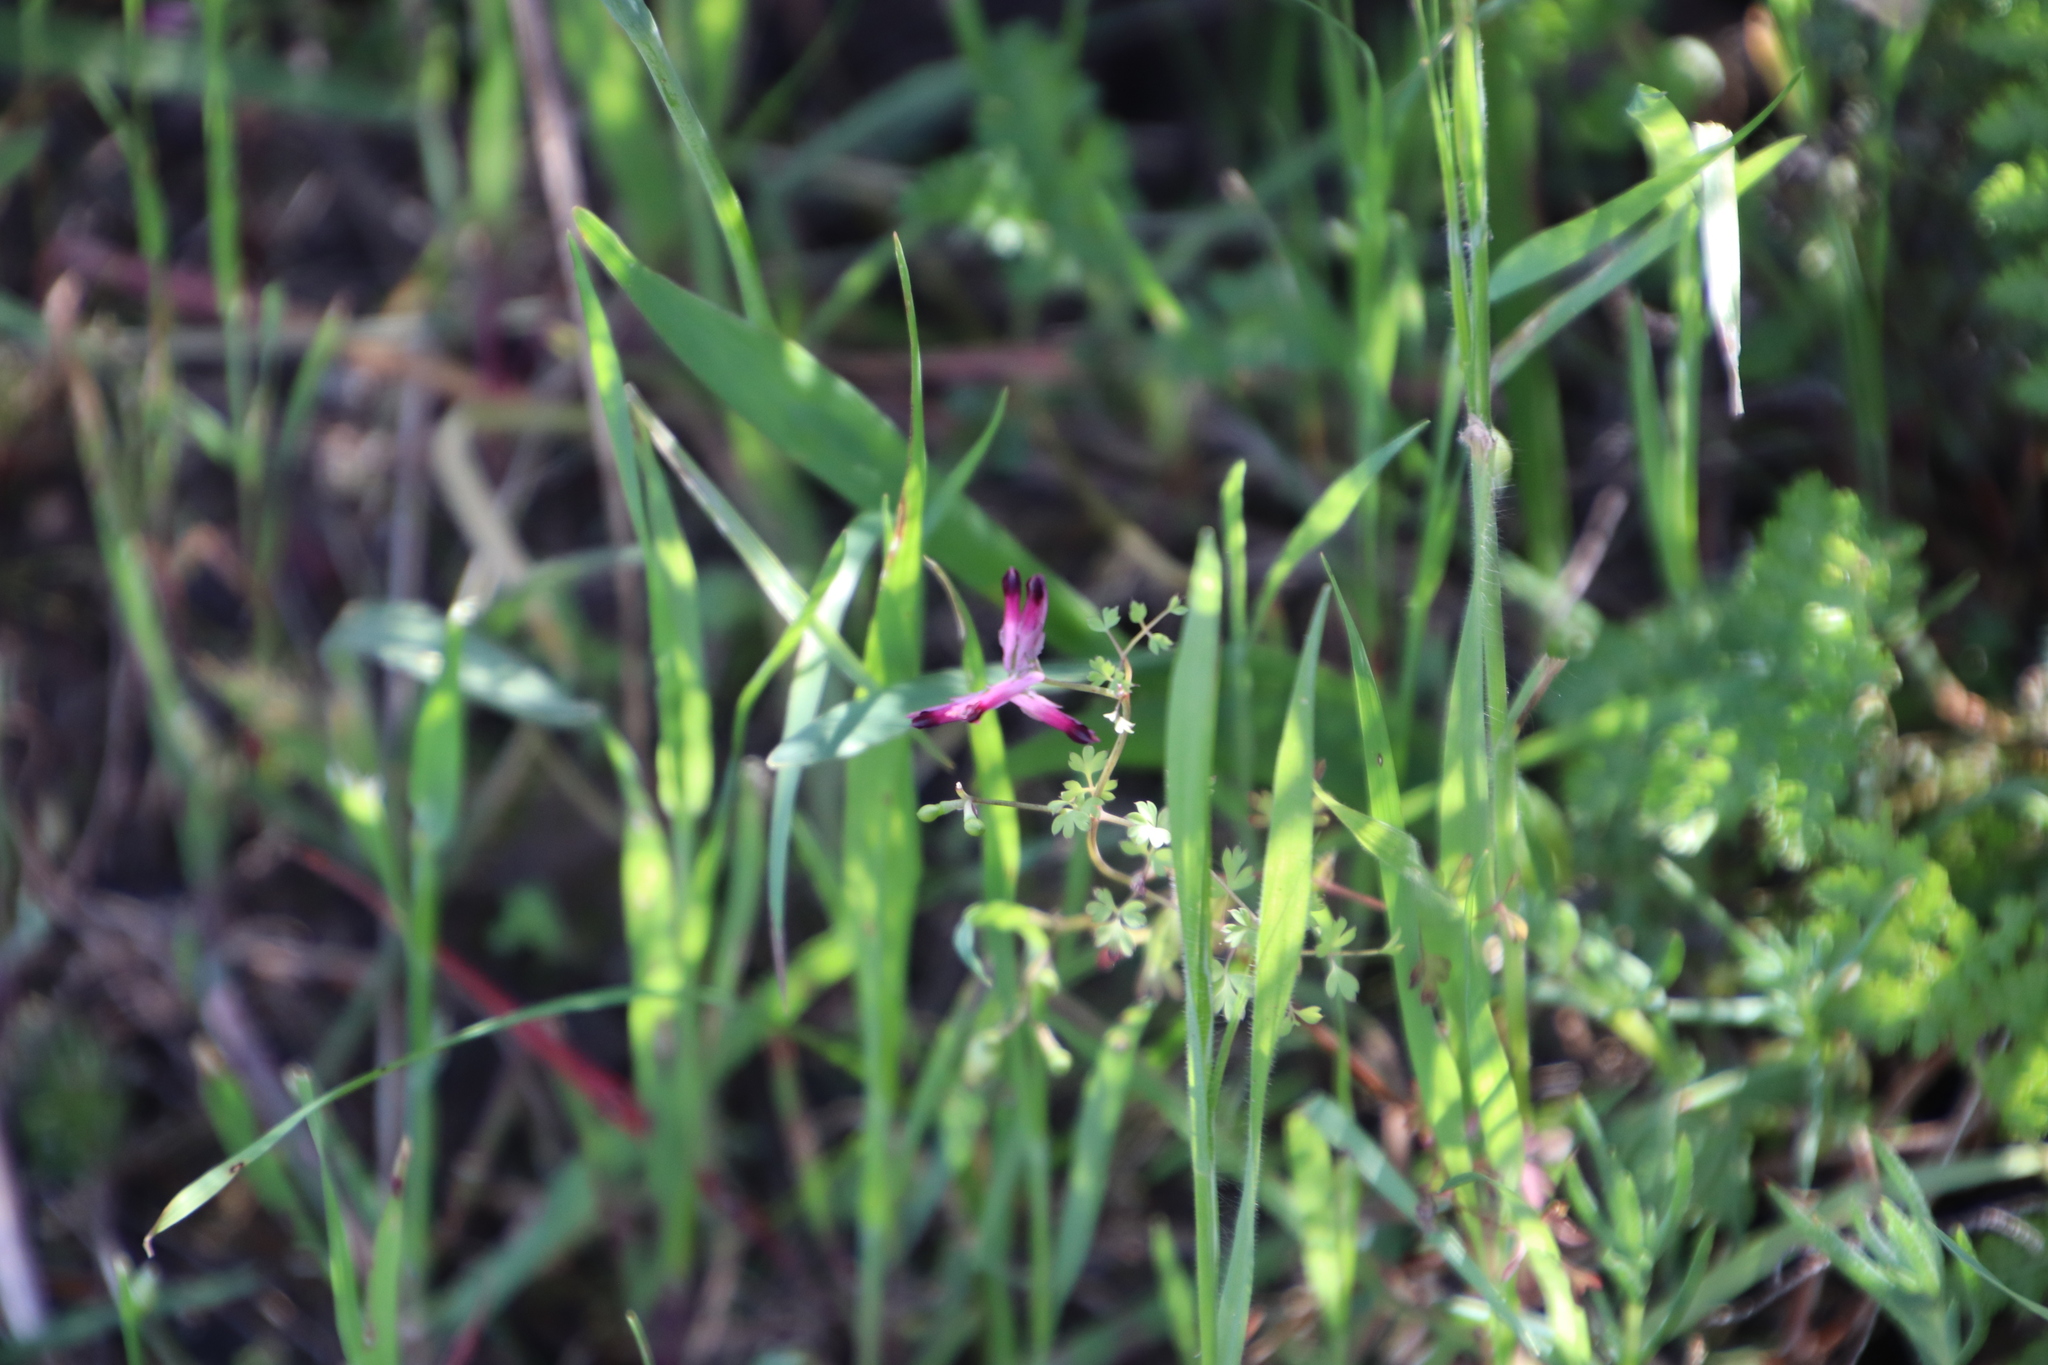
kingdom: Plantae
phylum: Tracheophyta
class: Magnoliopsida
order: Ranunculales
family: Papaveraceae
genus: Fumaria
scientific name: Fumaria muralis
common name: Common ramping-fumitory
